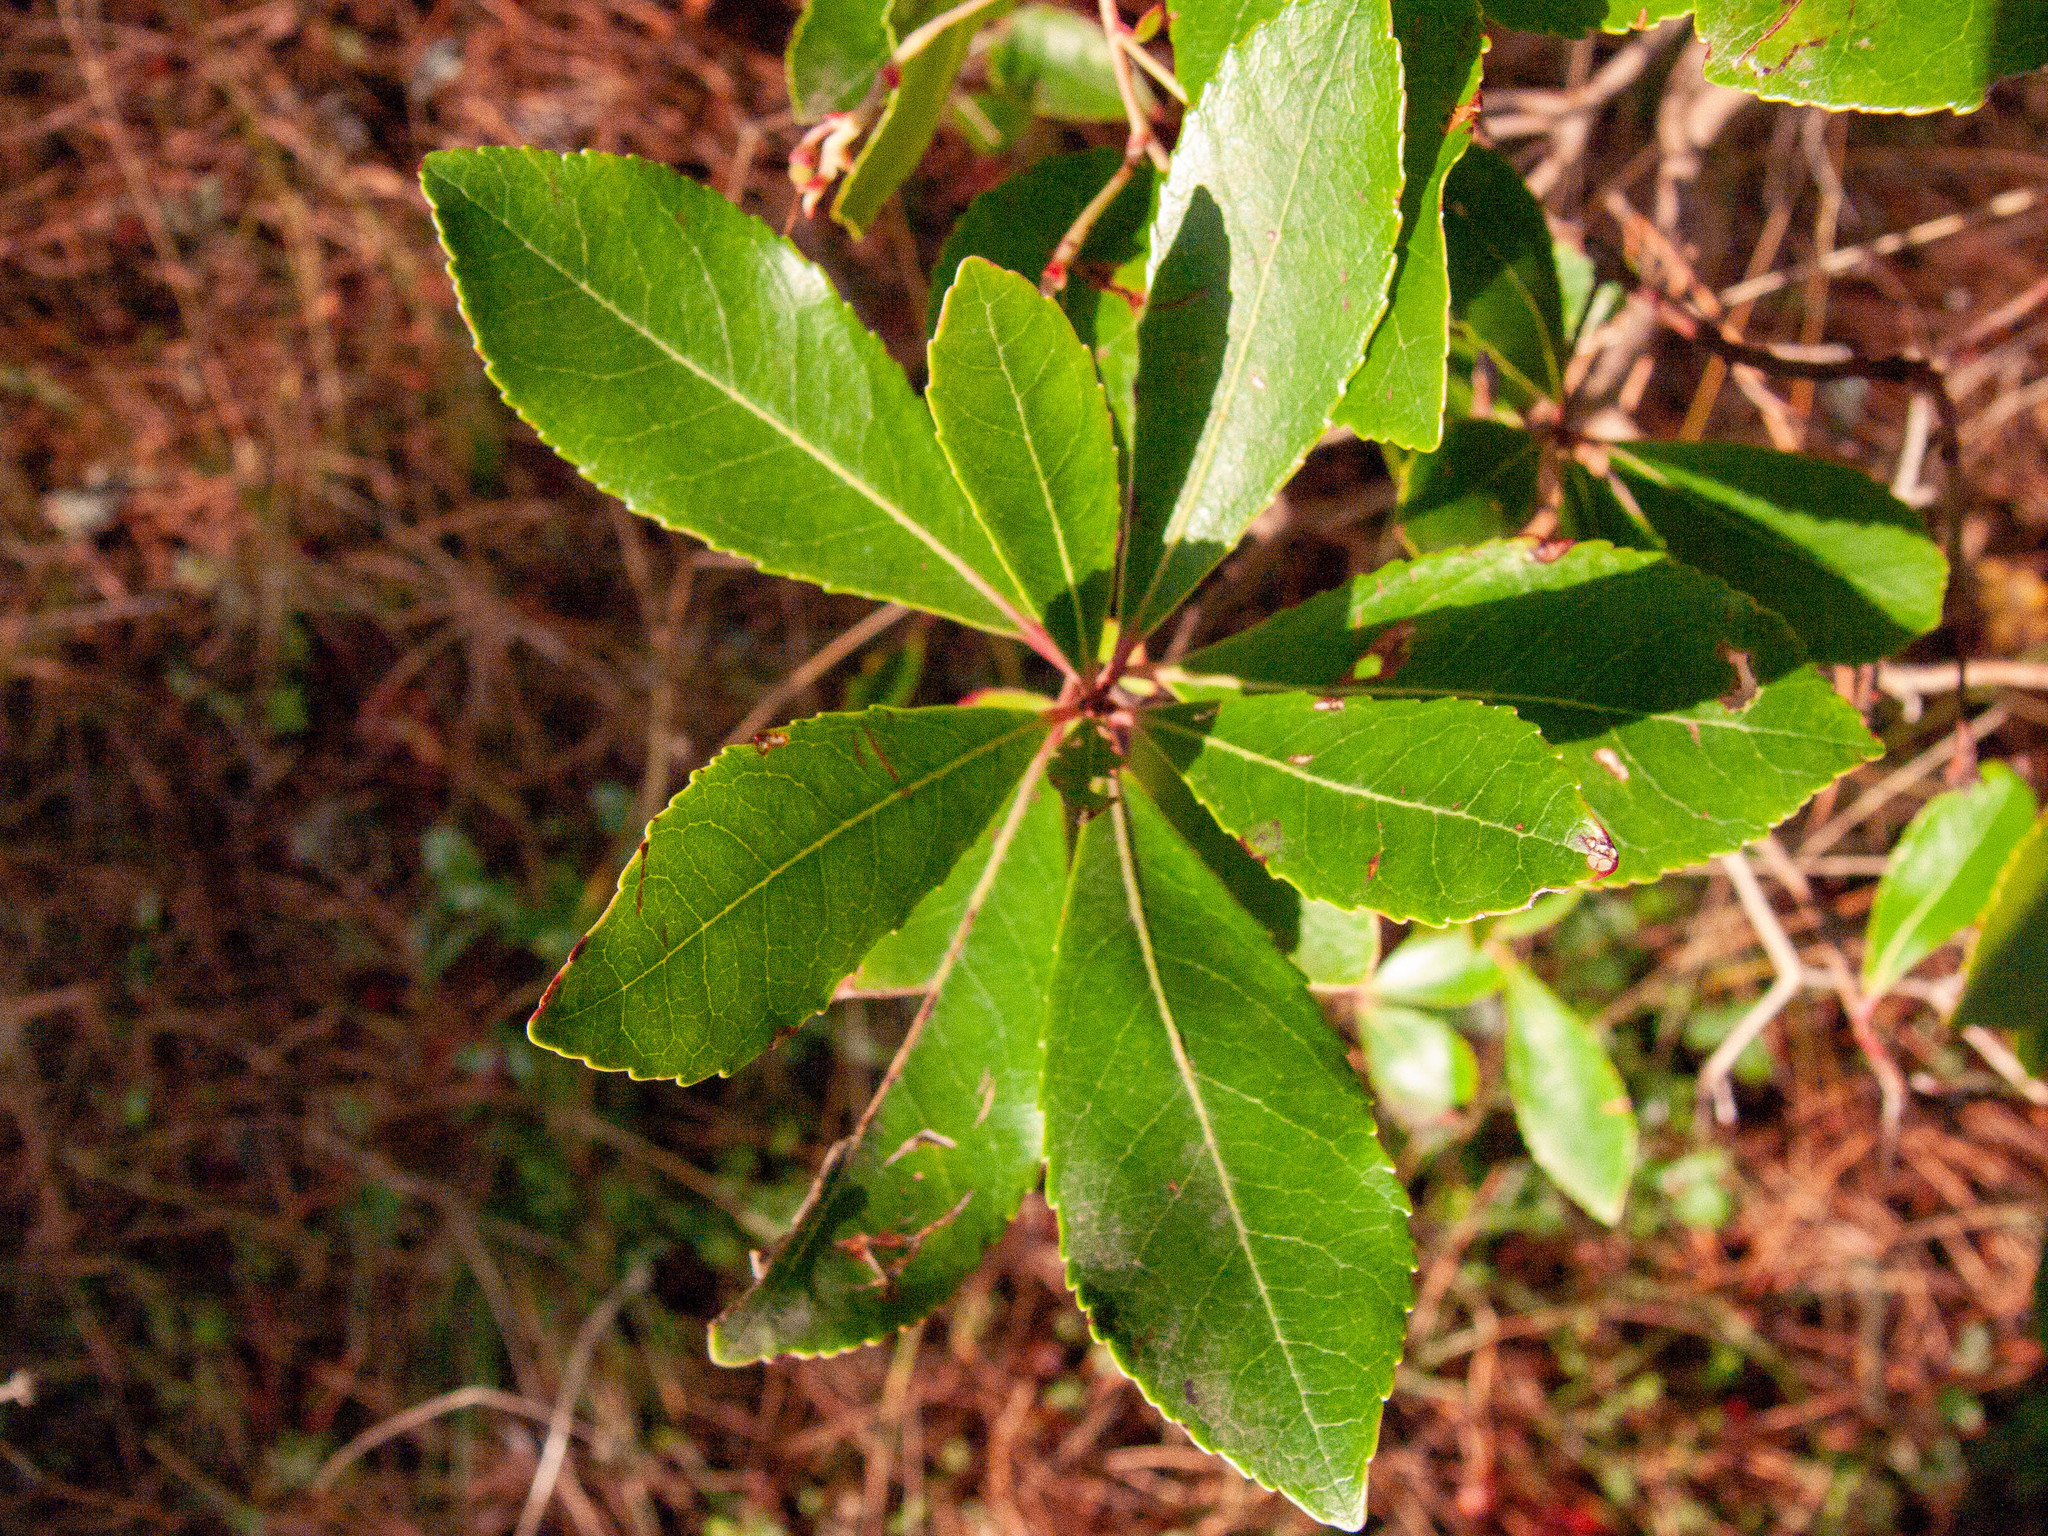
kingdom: Plantae
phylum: Tracheophyta
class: Magnoliopsida
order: Ericales
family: Ericaceae
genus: Arbutus
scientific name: Arbutus unedo
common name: Strawberry-tree
